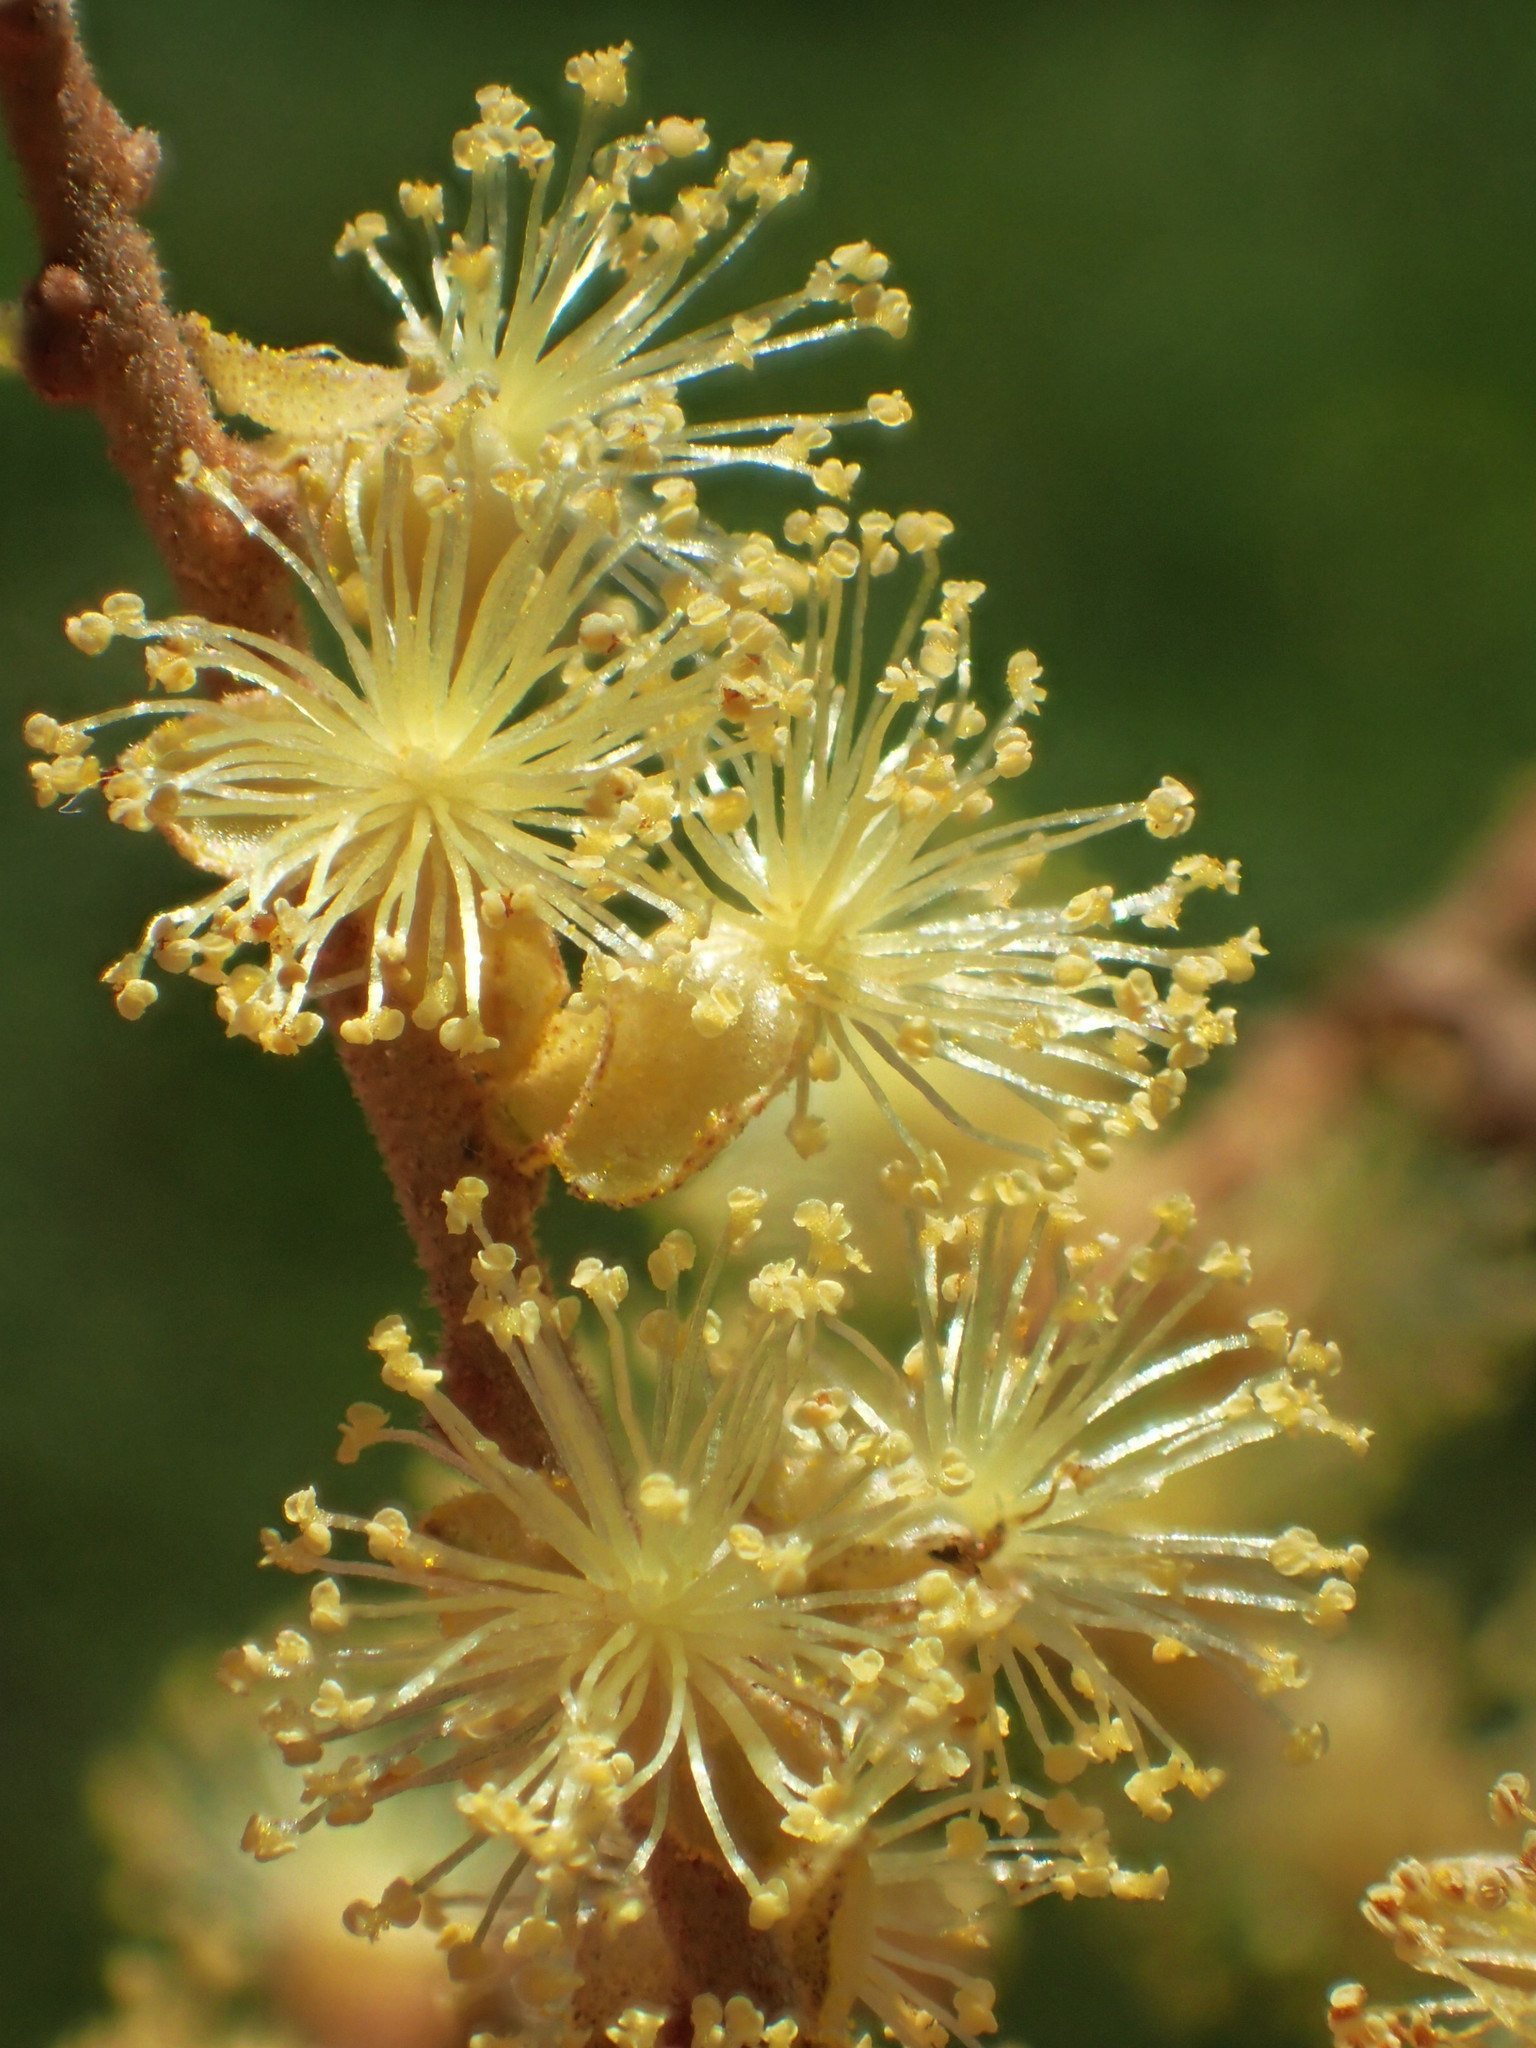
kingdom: Plantae
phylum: Tracheophyta
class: Magnoliopsida
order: Malpighiales
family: Euphorbiaceae
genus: Mallotus
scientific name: Mallotus paniculatus
